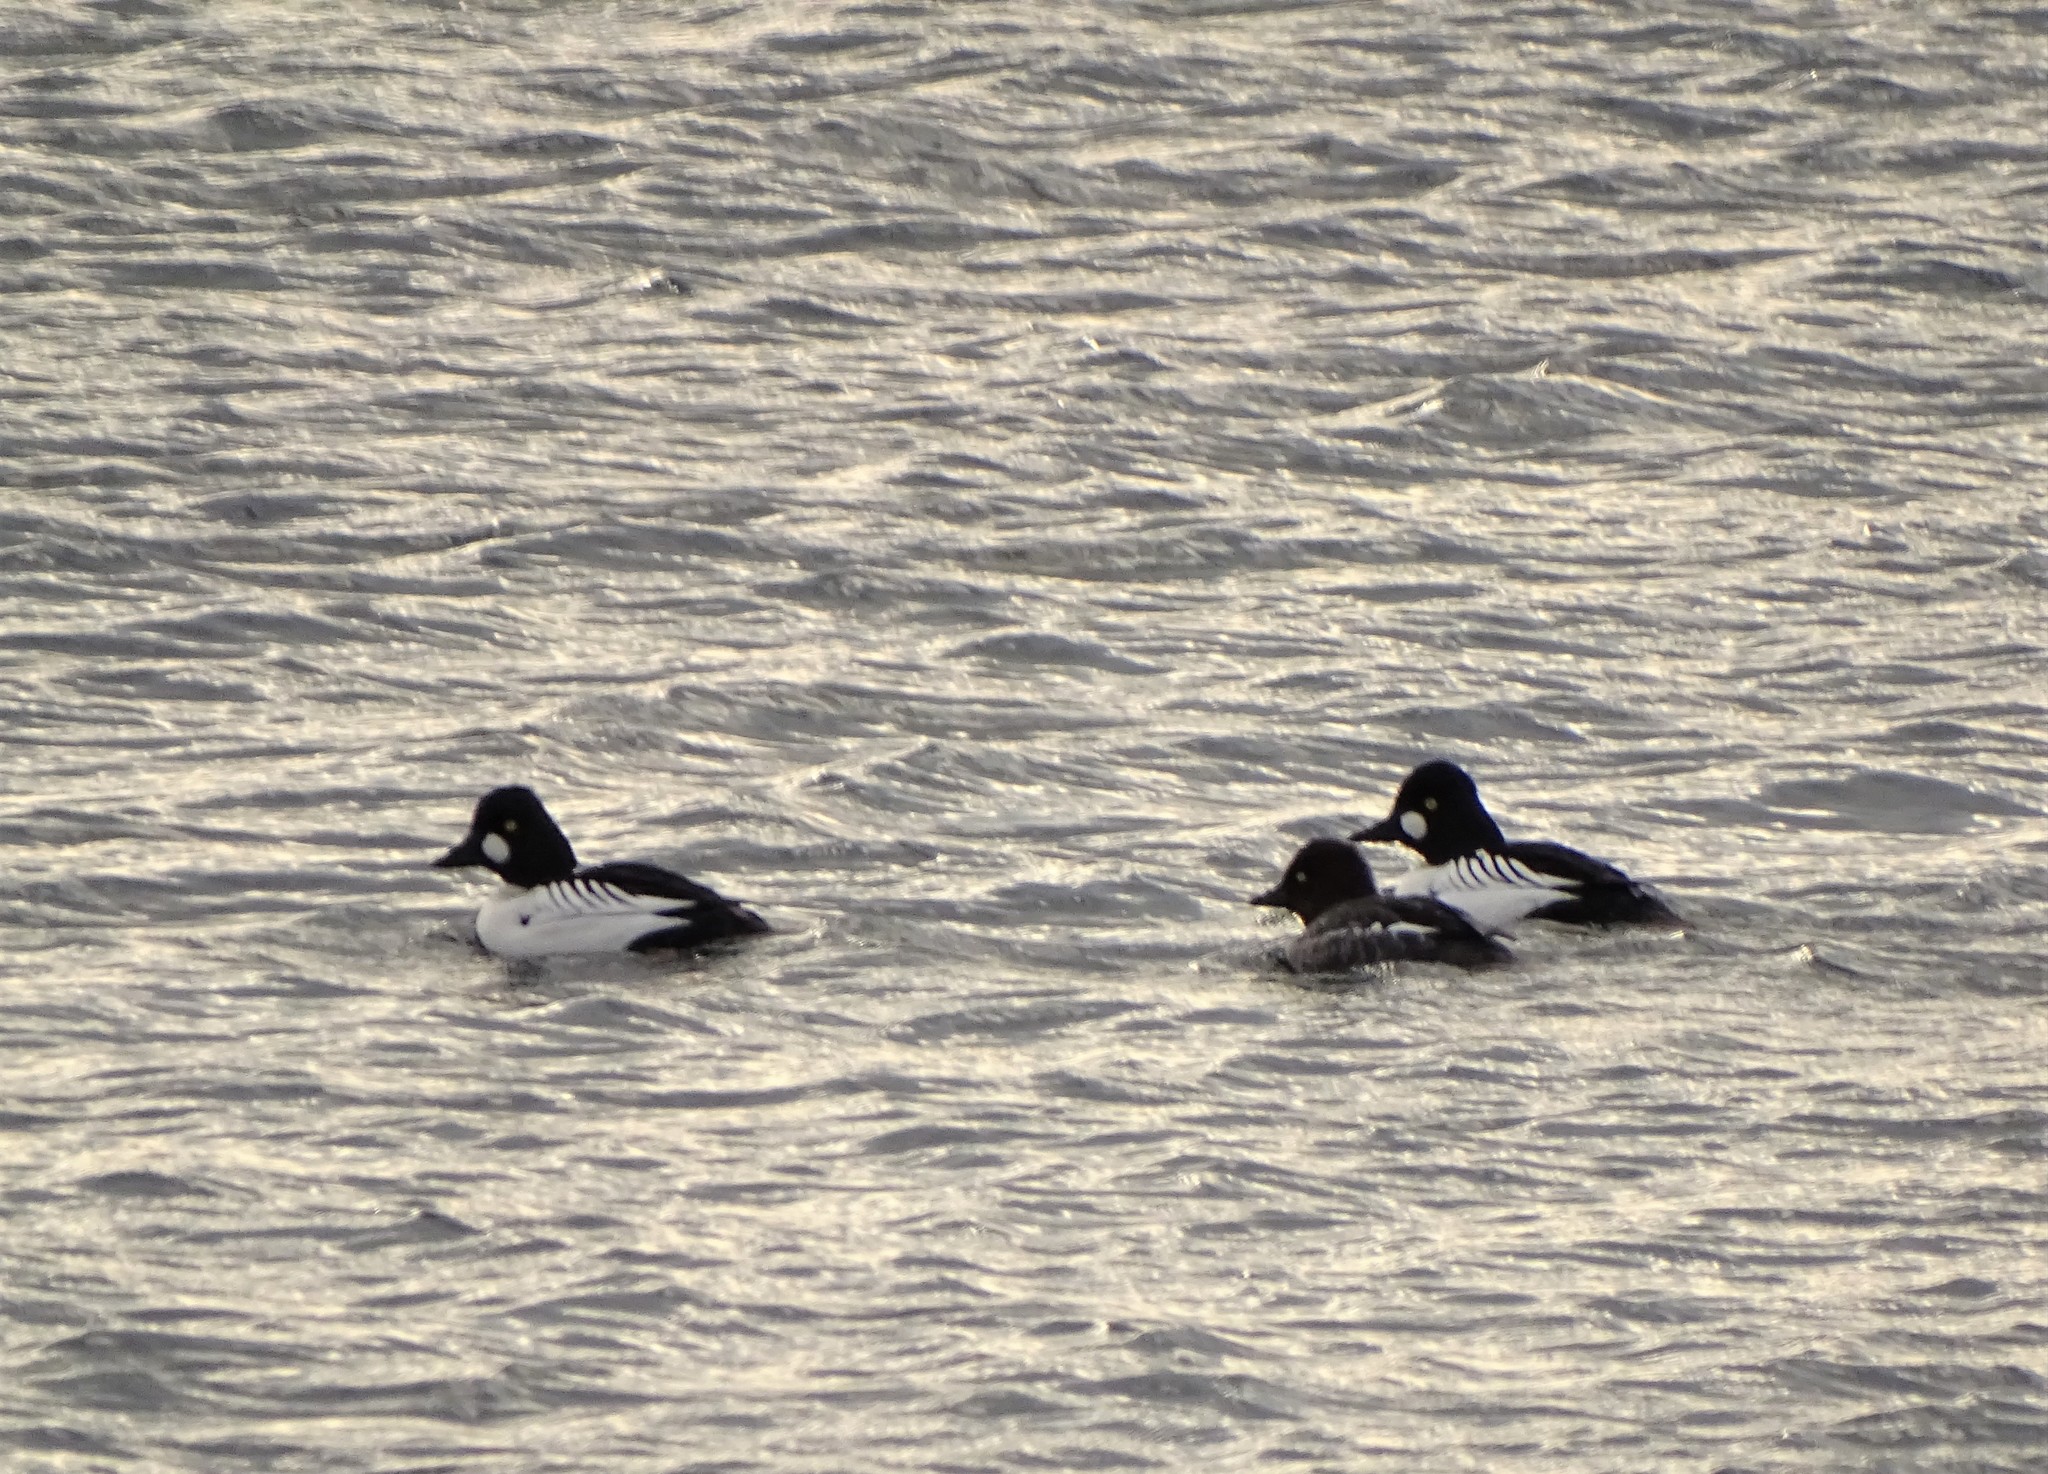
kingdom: Animalia
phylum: Chordata
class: Aves
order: Anseriformes
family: Anatidae
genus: Bucephala
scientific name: Bucephala clangula
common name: Common goldeneye
